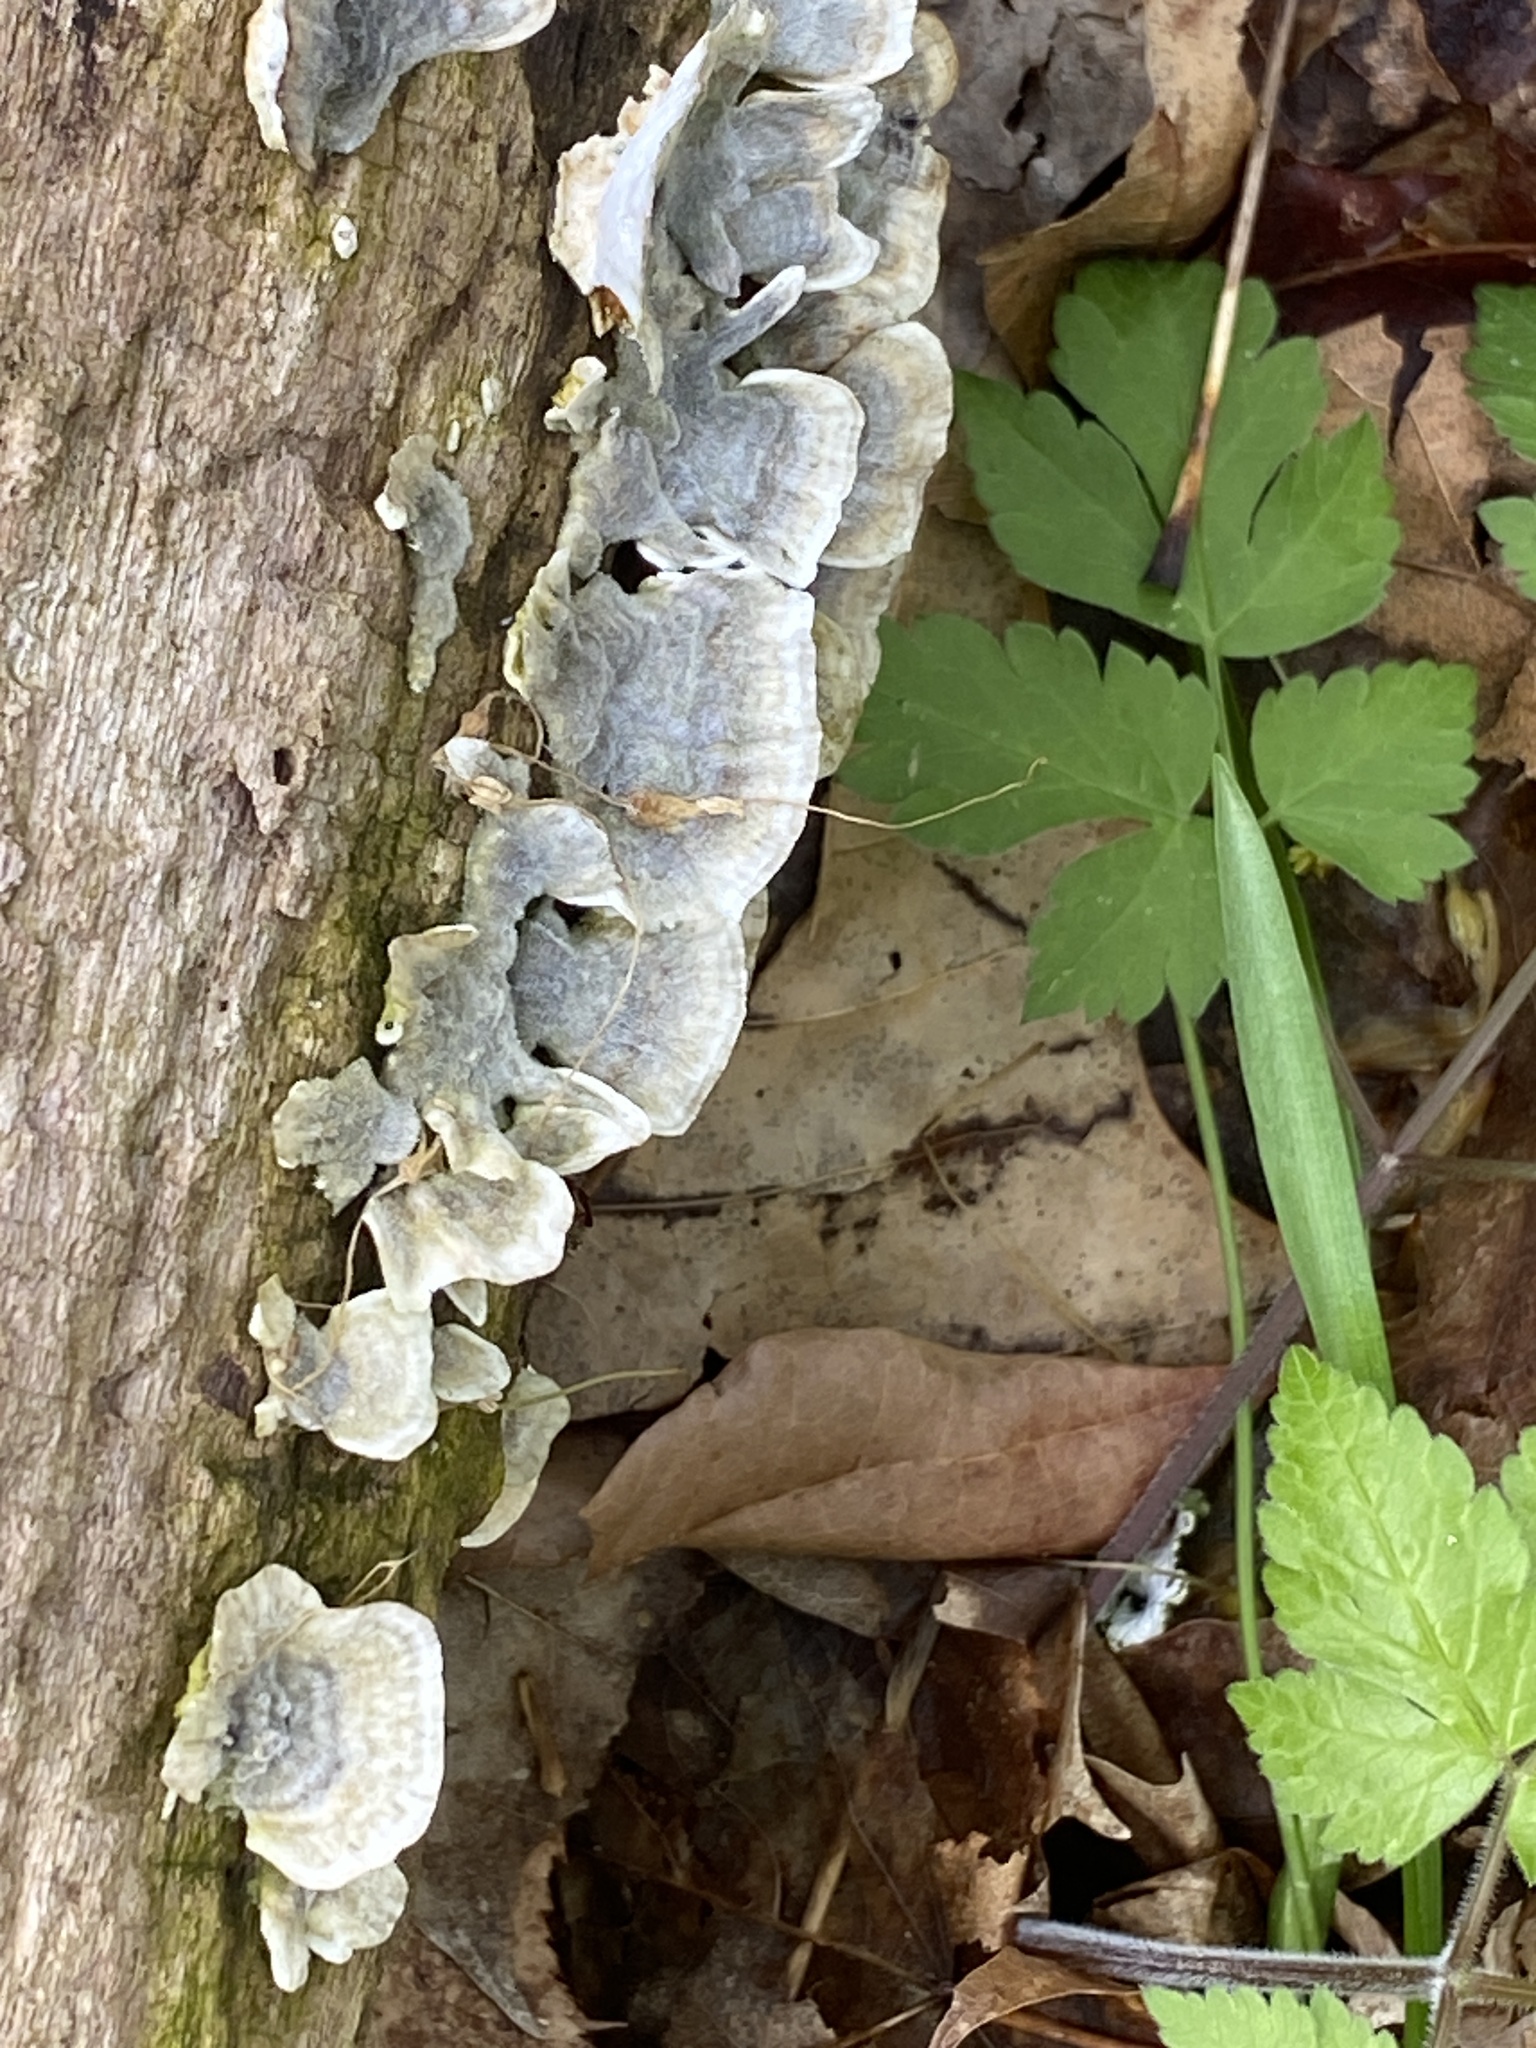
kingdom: Fungi
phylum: Basidiomycota
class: Agaricomycetes
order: Polyporales
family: Polyporaceae
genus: Trametes
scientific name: Trametes versicolor
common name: Turkeytail
